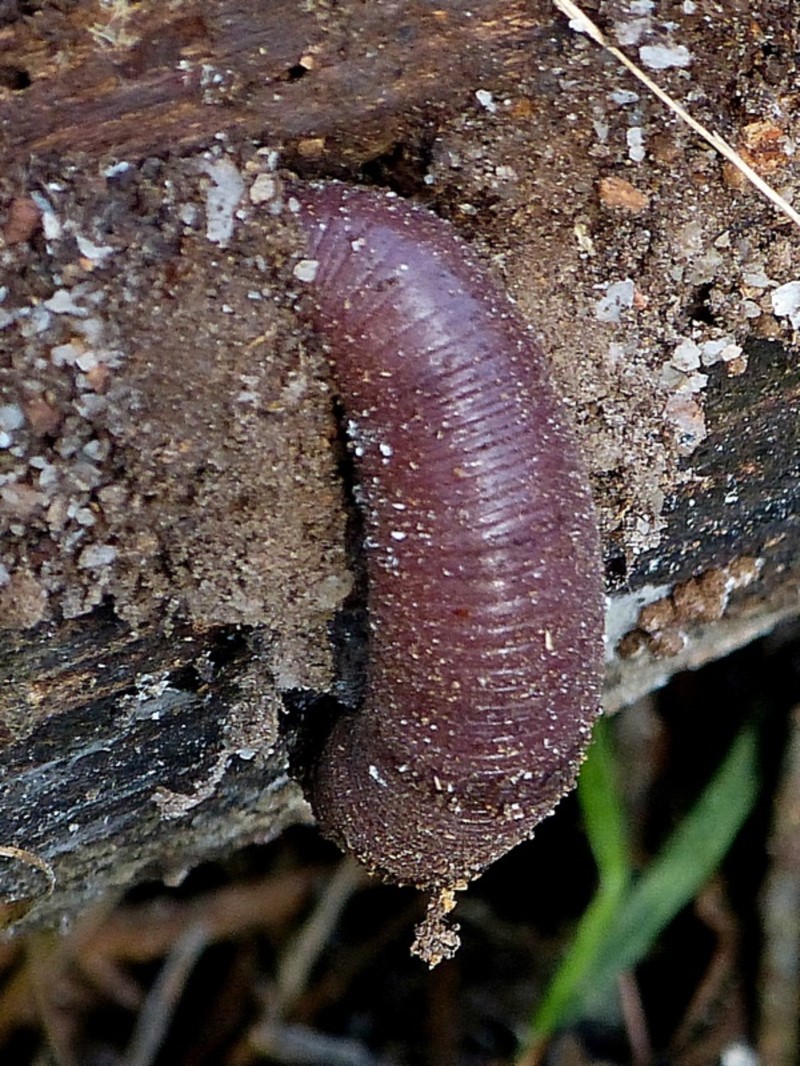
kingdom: Animalia
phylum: Annelida
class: Clitellata
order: Crassiclitellata
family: Megascolecidae
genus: Digaster
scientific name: Digaster sylvaticus
